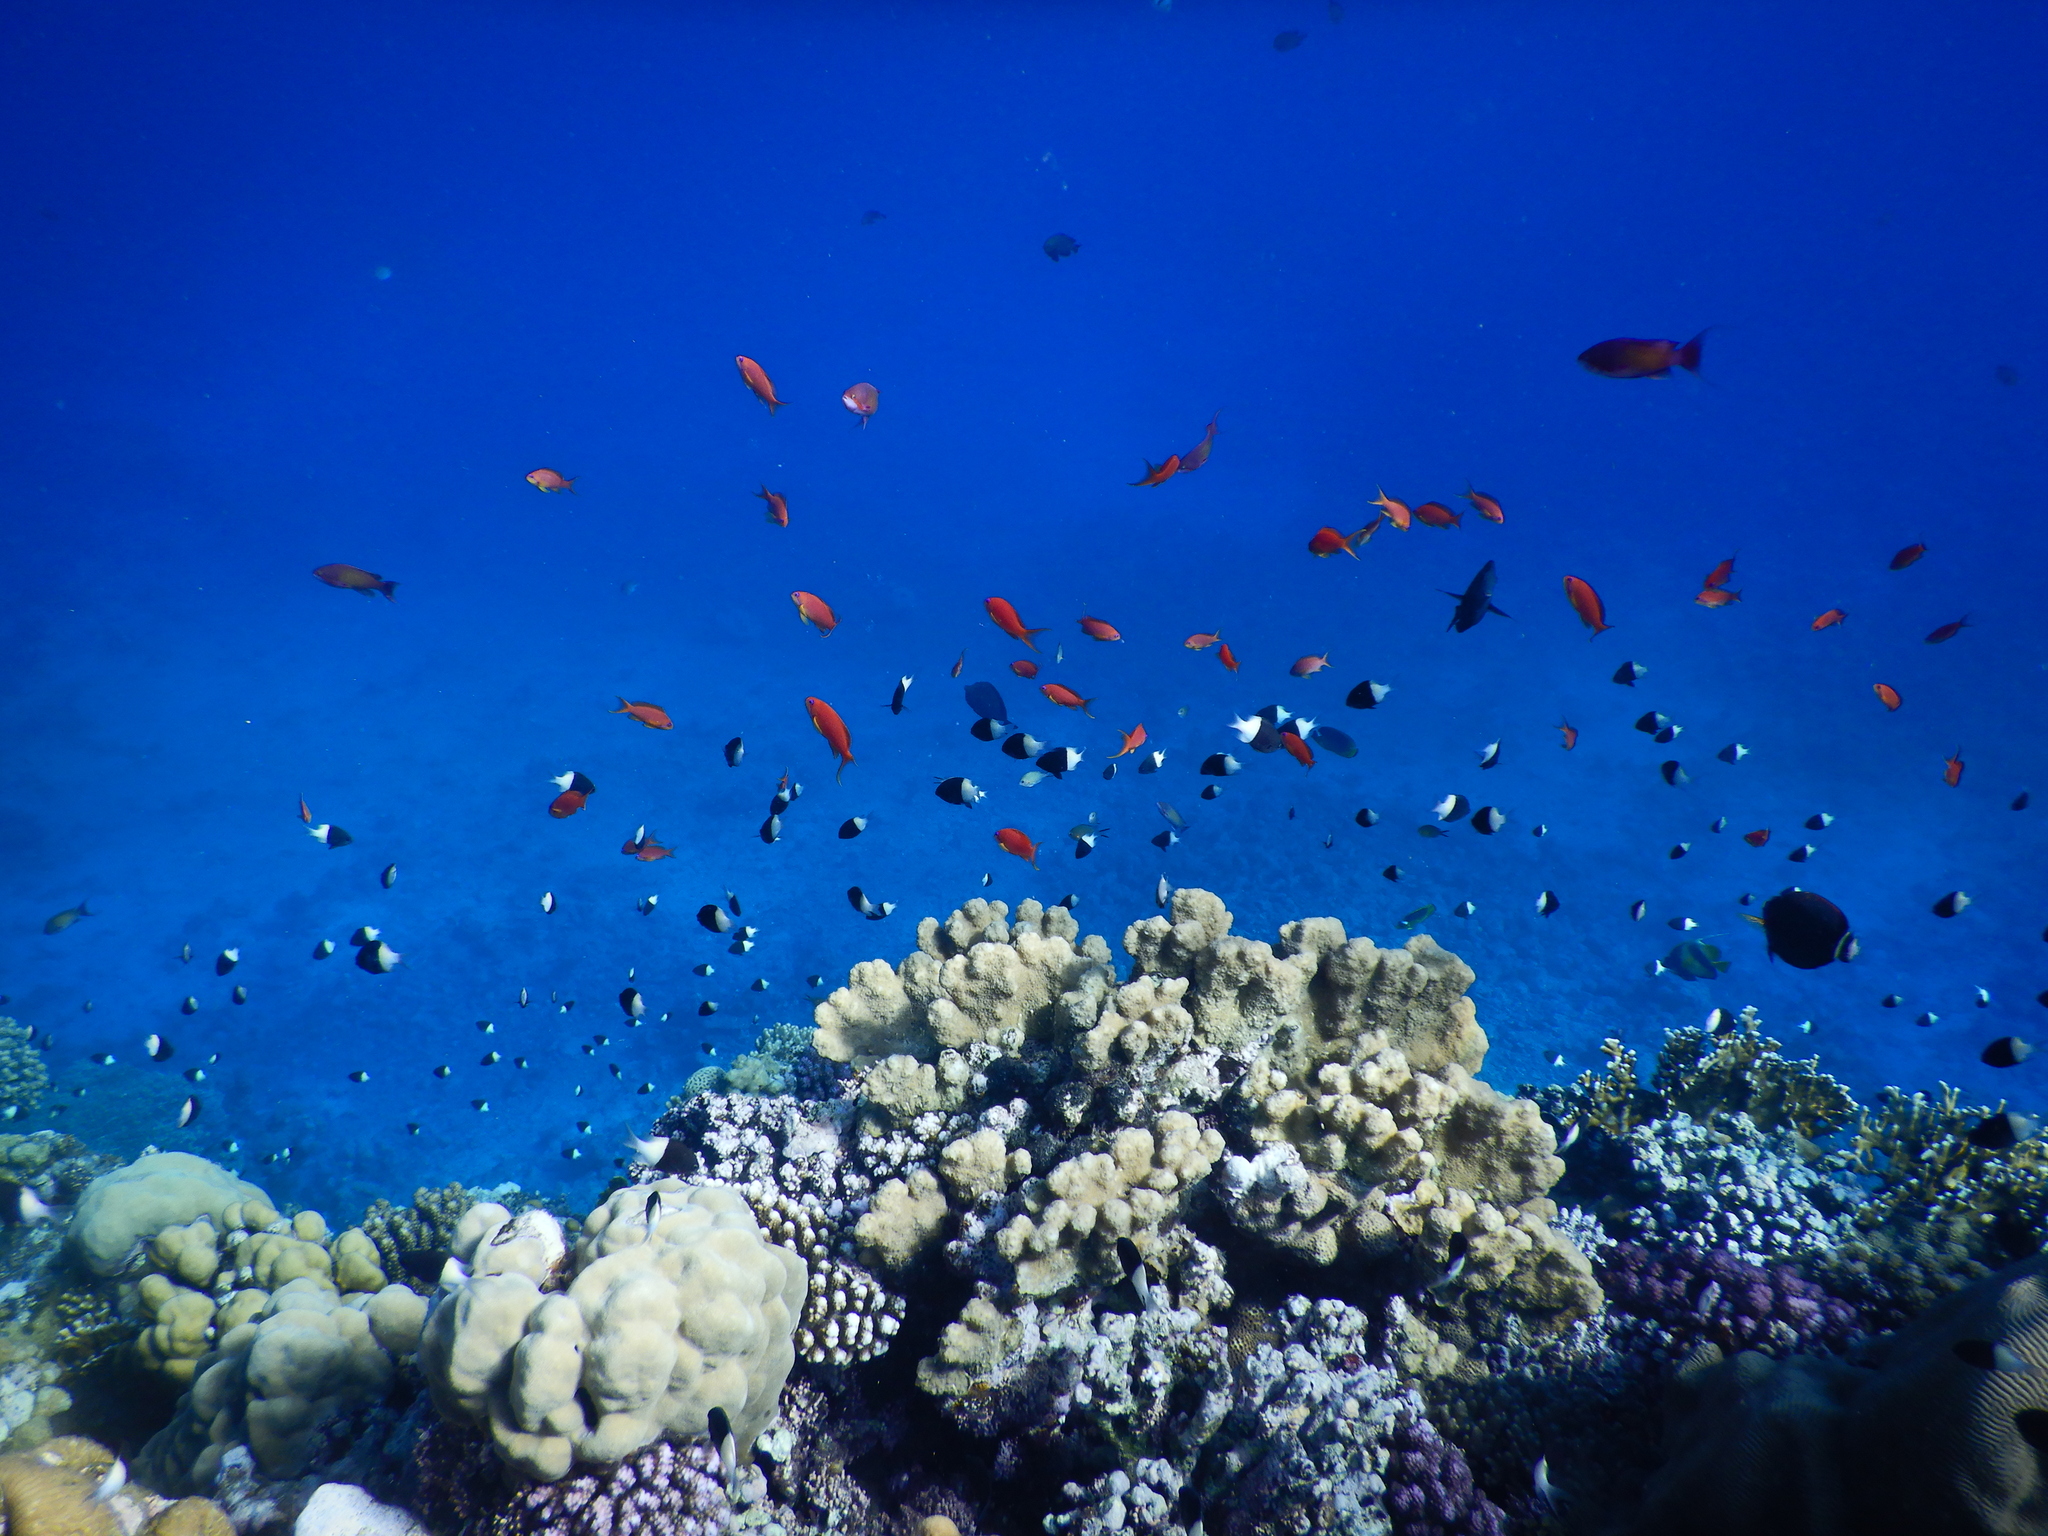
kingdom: Animalia
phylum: Chordata
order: Perciformes
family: Serranidae
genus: Pseudanthias
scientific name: Pseudanthias squamipinnis
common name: Scalefin anthias
